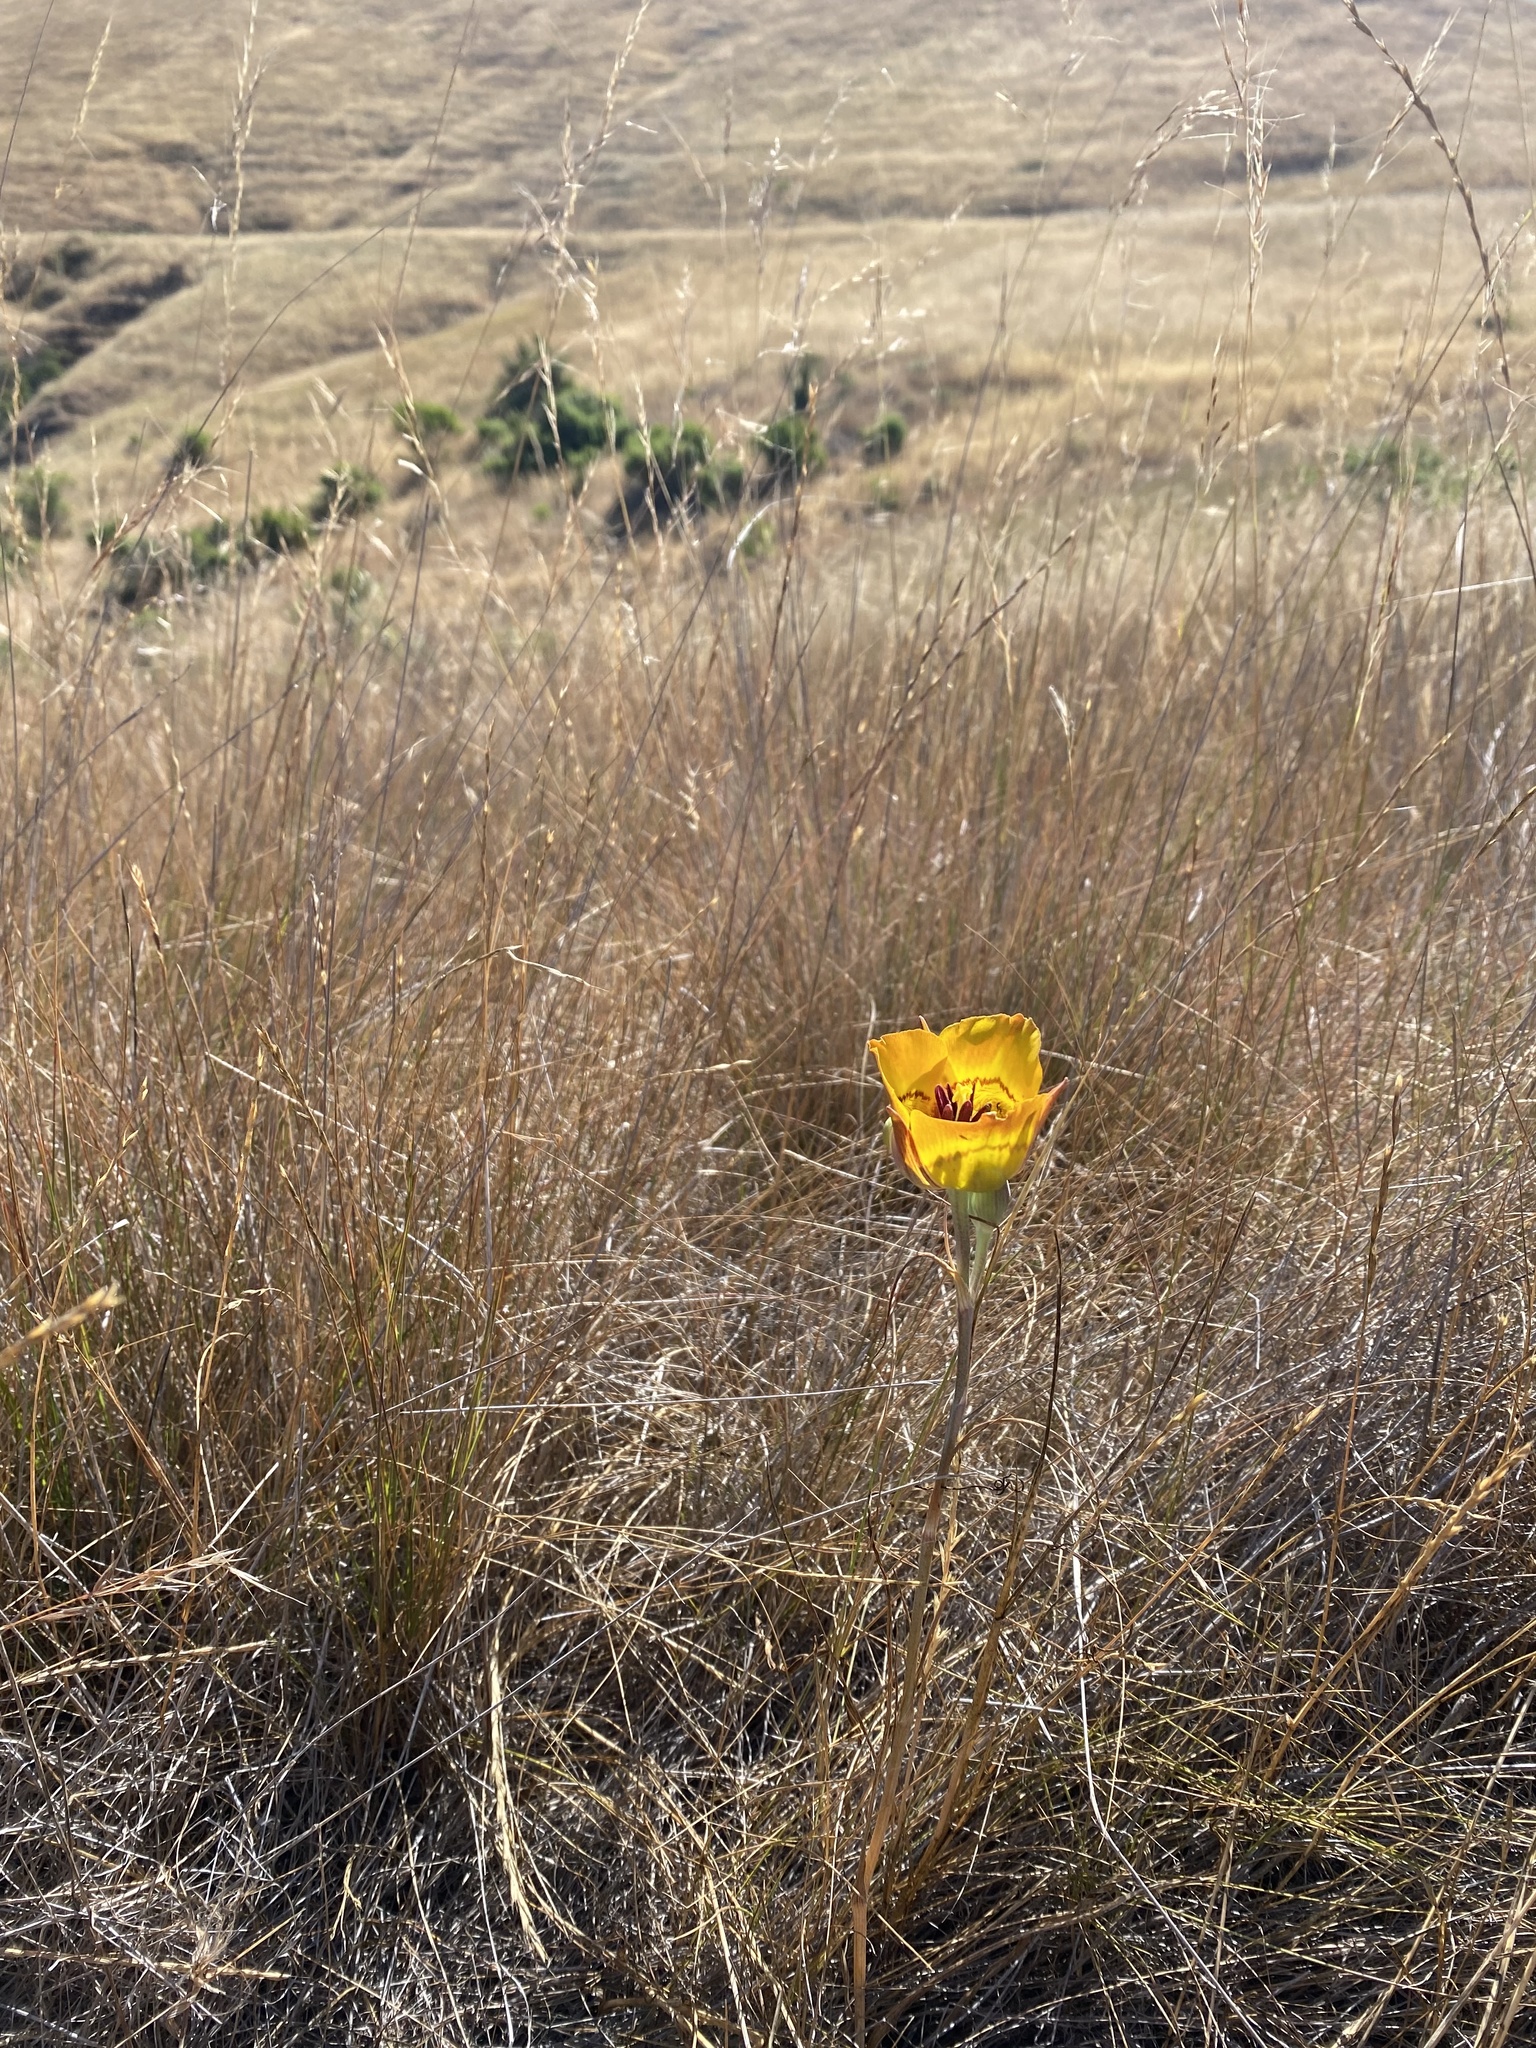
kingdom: Plantae
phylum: Tracheophyta
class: Liliopsida
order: Liliales
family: Liliaceae
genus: Calochortus
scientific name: Calochortus clavatus
